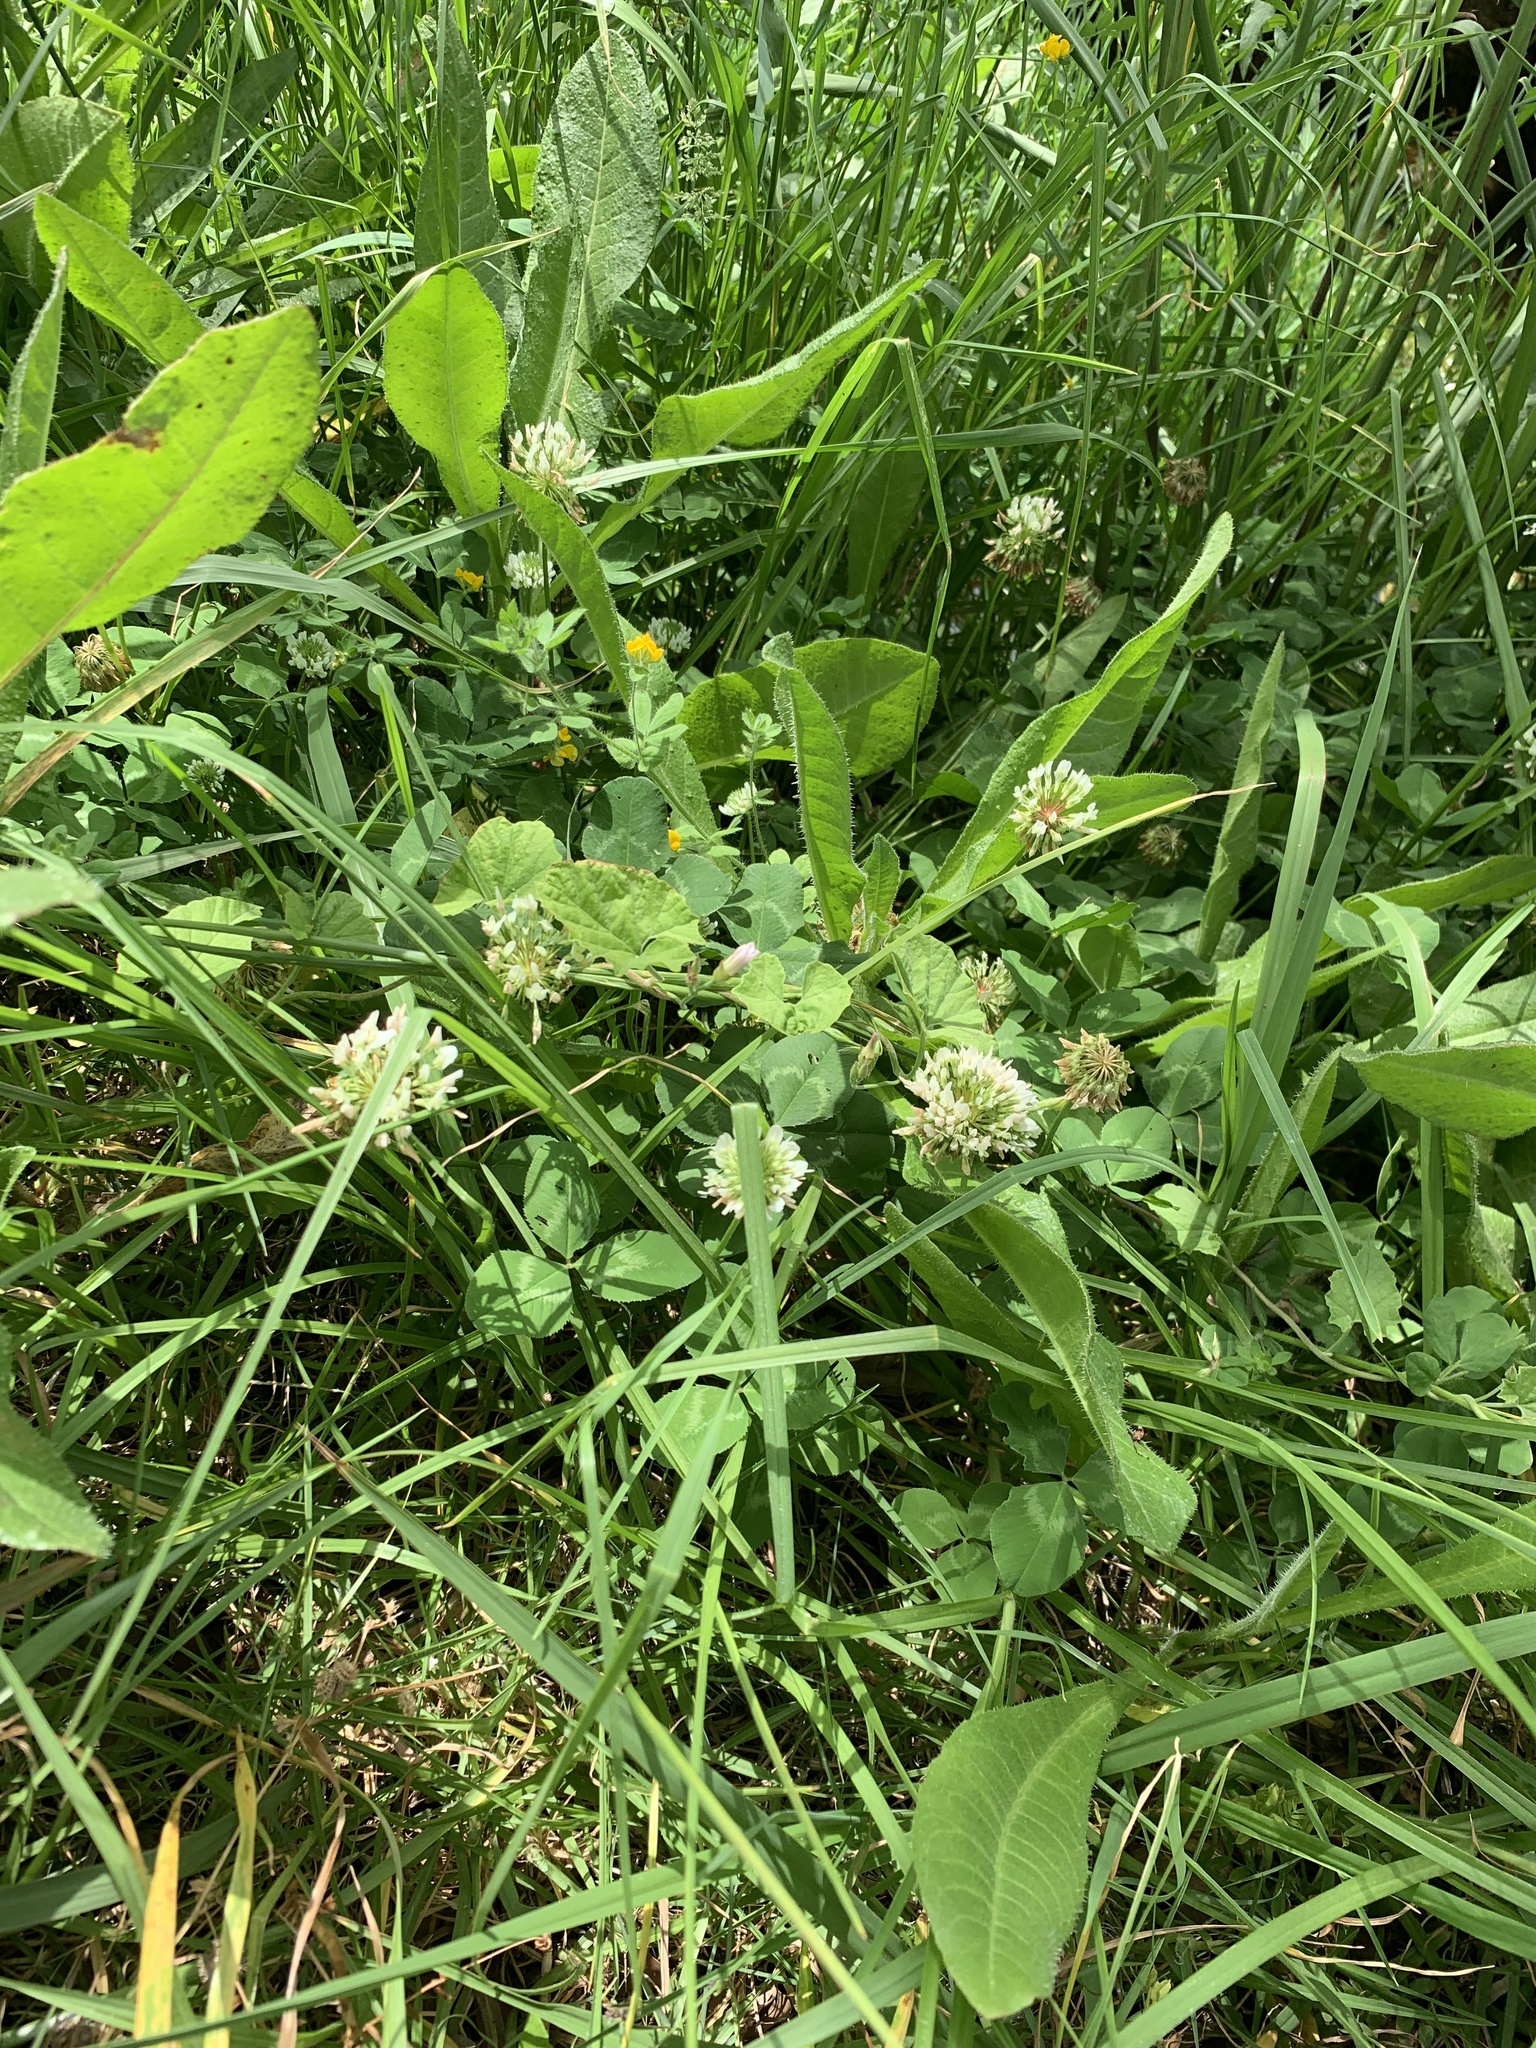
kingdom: Plantae
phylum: Tracheophyta
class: Magnoliopsida
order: Fabales
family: Fabaceae
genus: Trifolium
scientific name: Trifolium repens
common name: White clover
